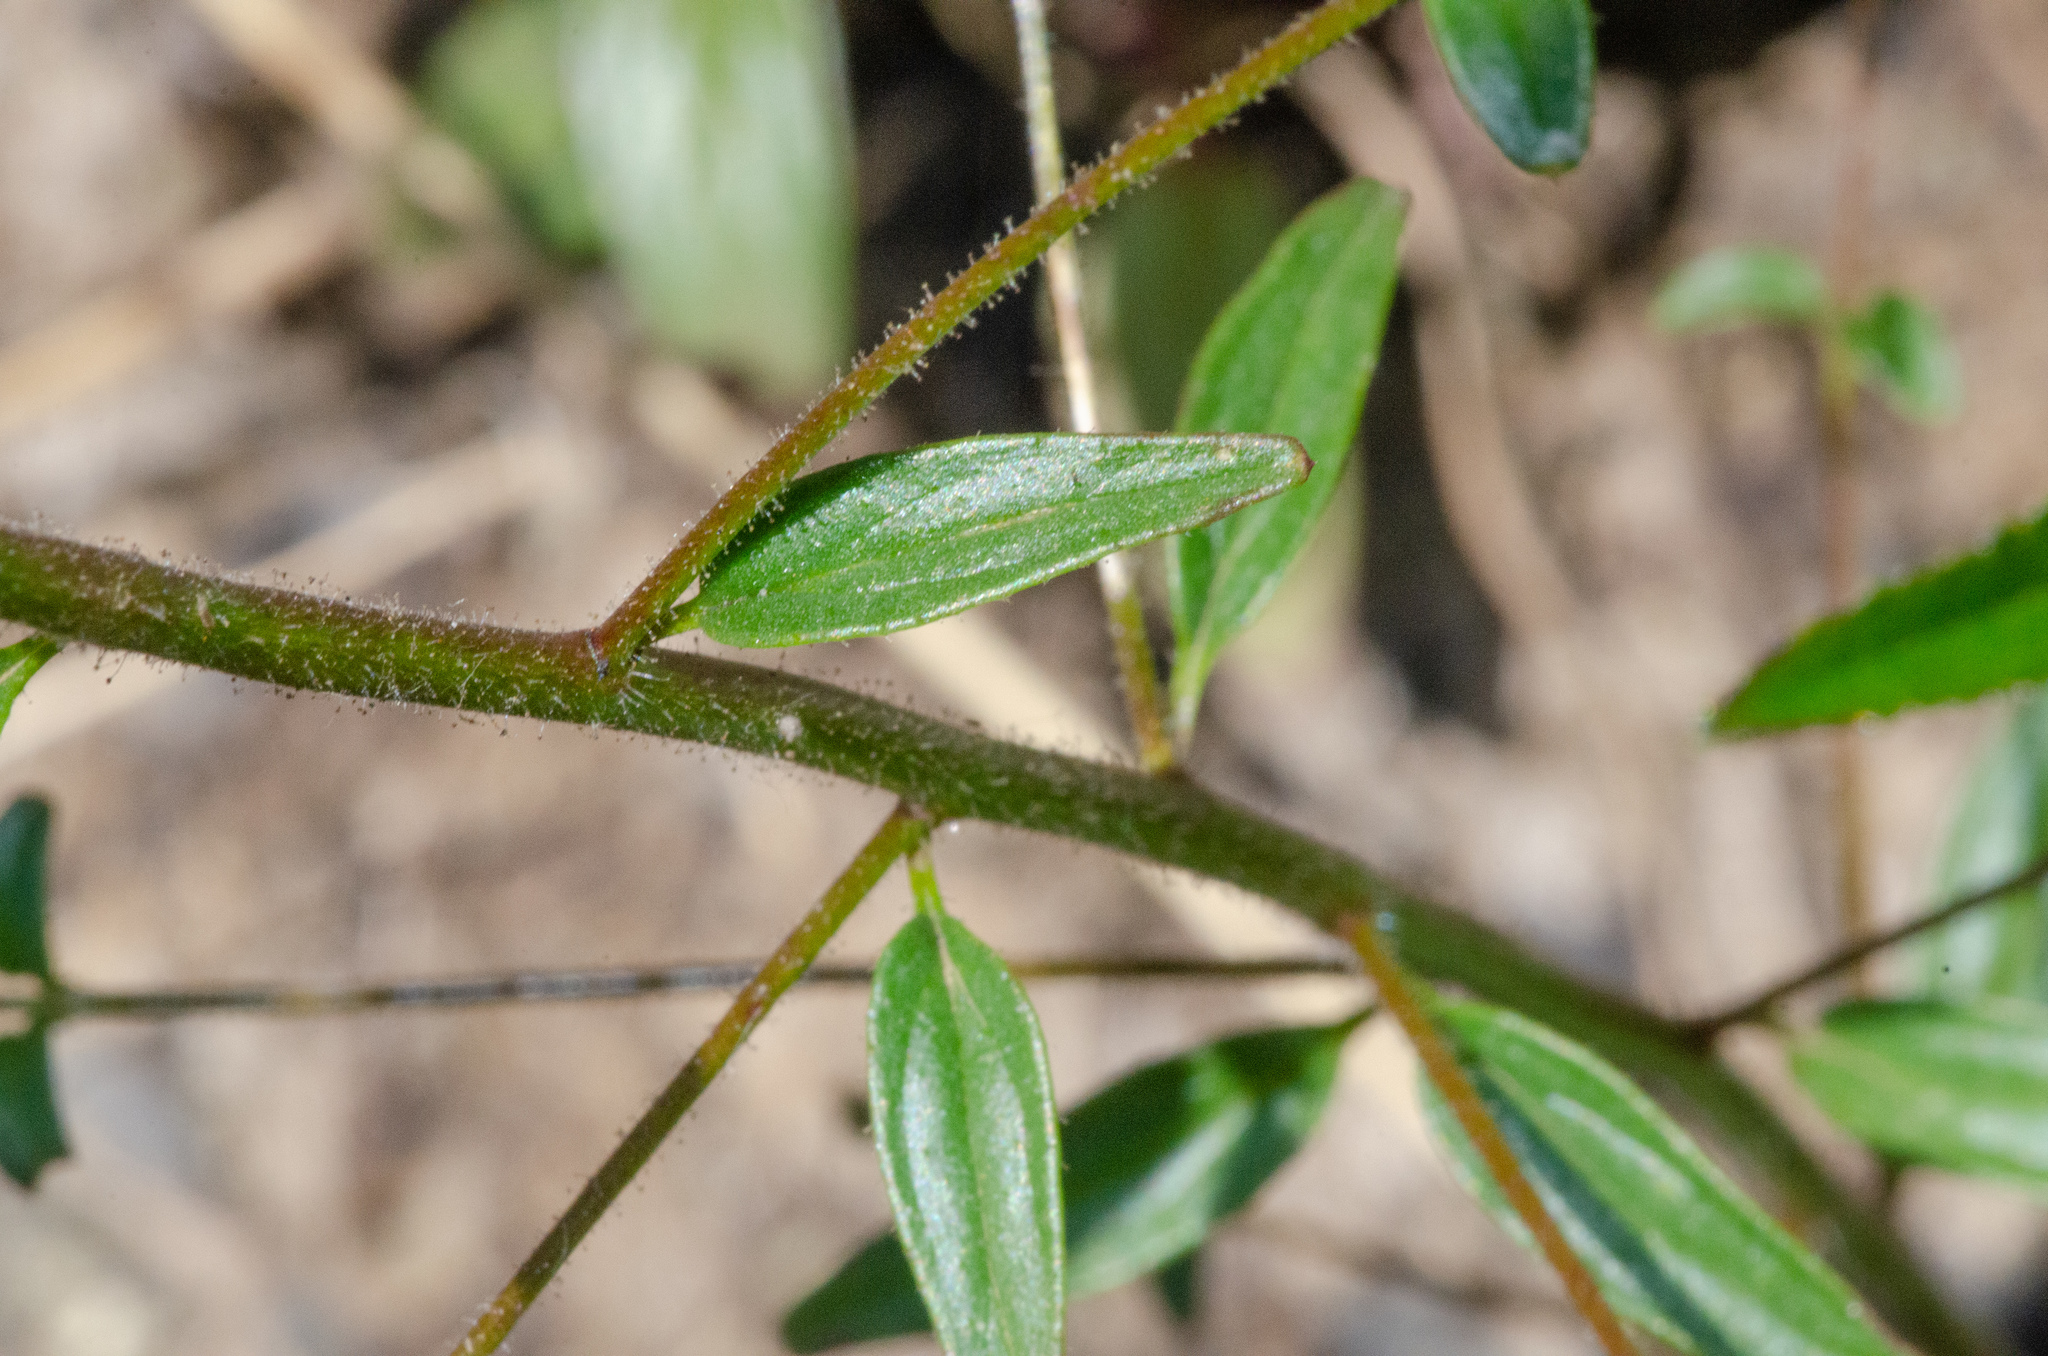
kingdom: Plantae
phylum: Tracheophyta
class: Magnoliopsida
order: Lamiales
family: Plantaginaceae
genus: Sairocarpus
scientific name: Sairocarpus vexillocalyculatus
